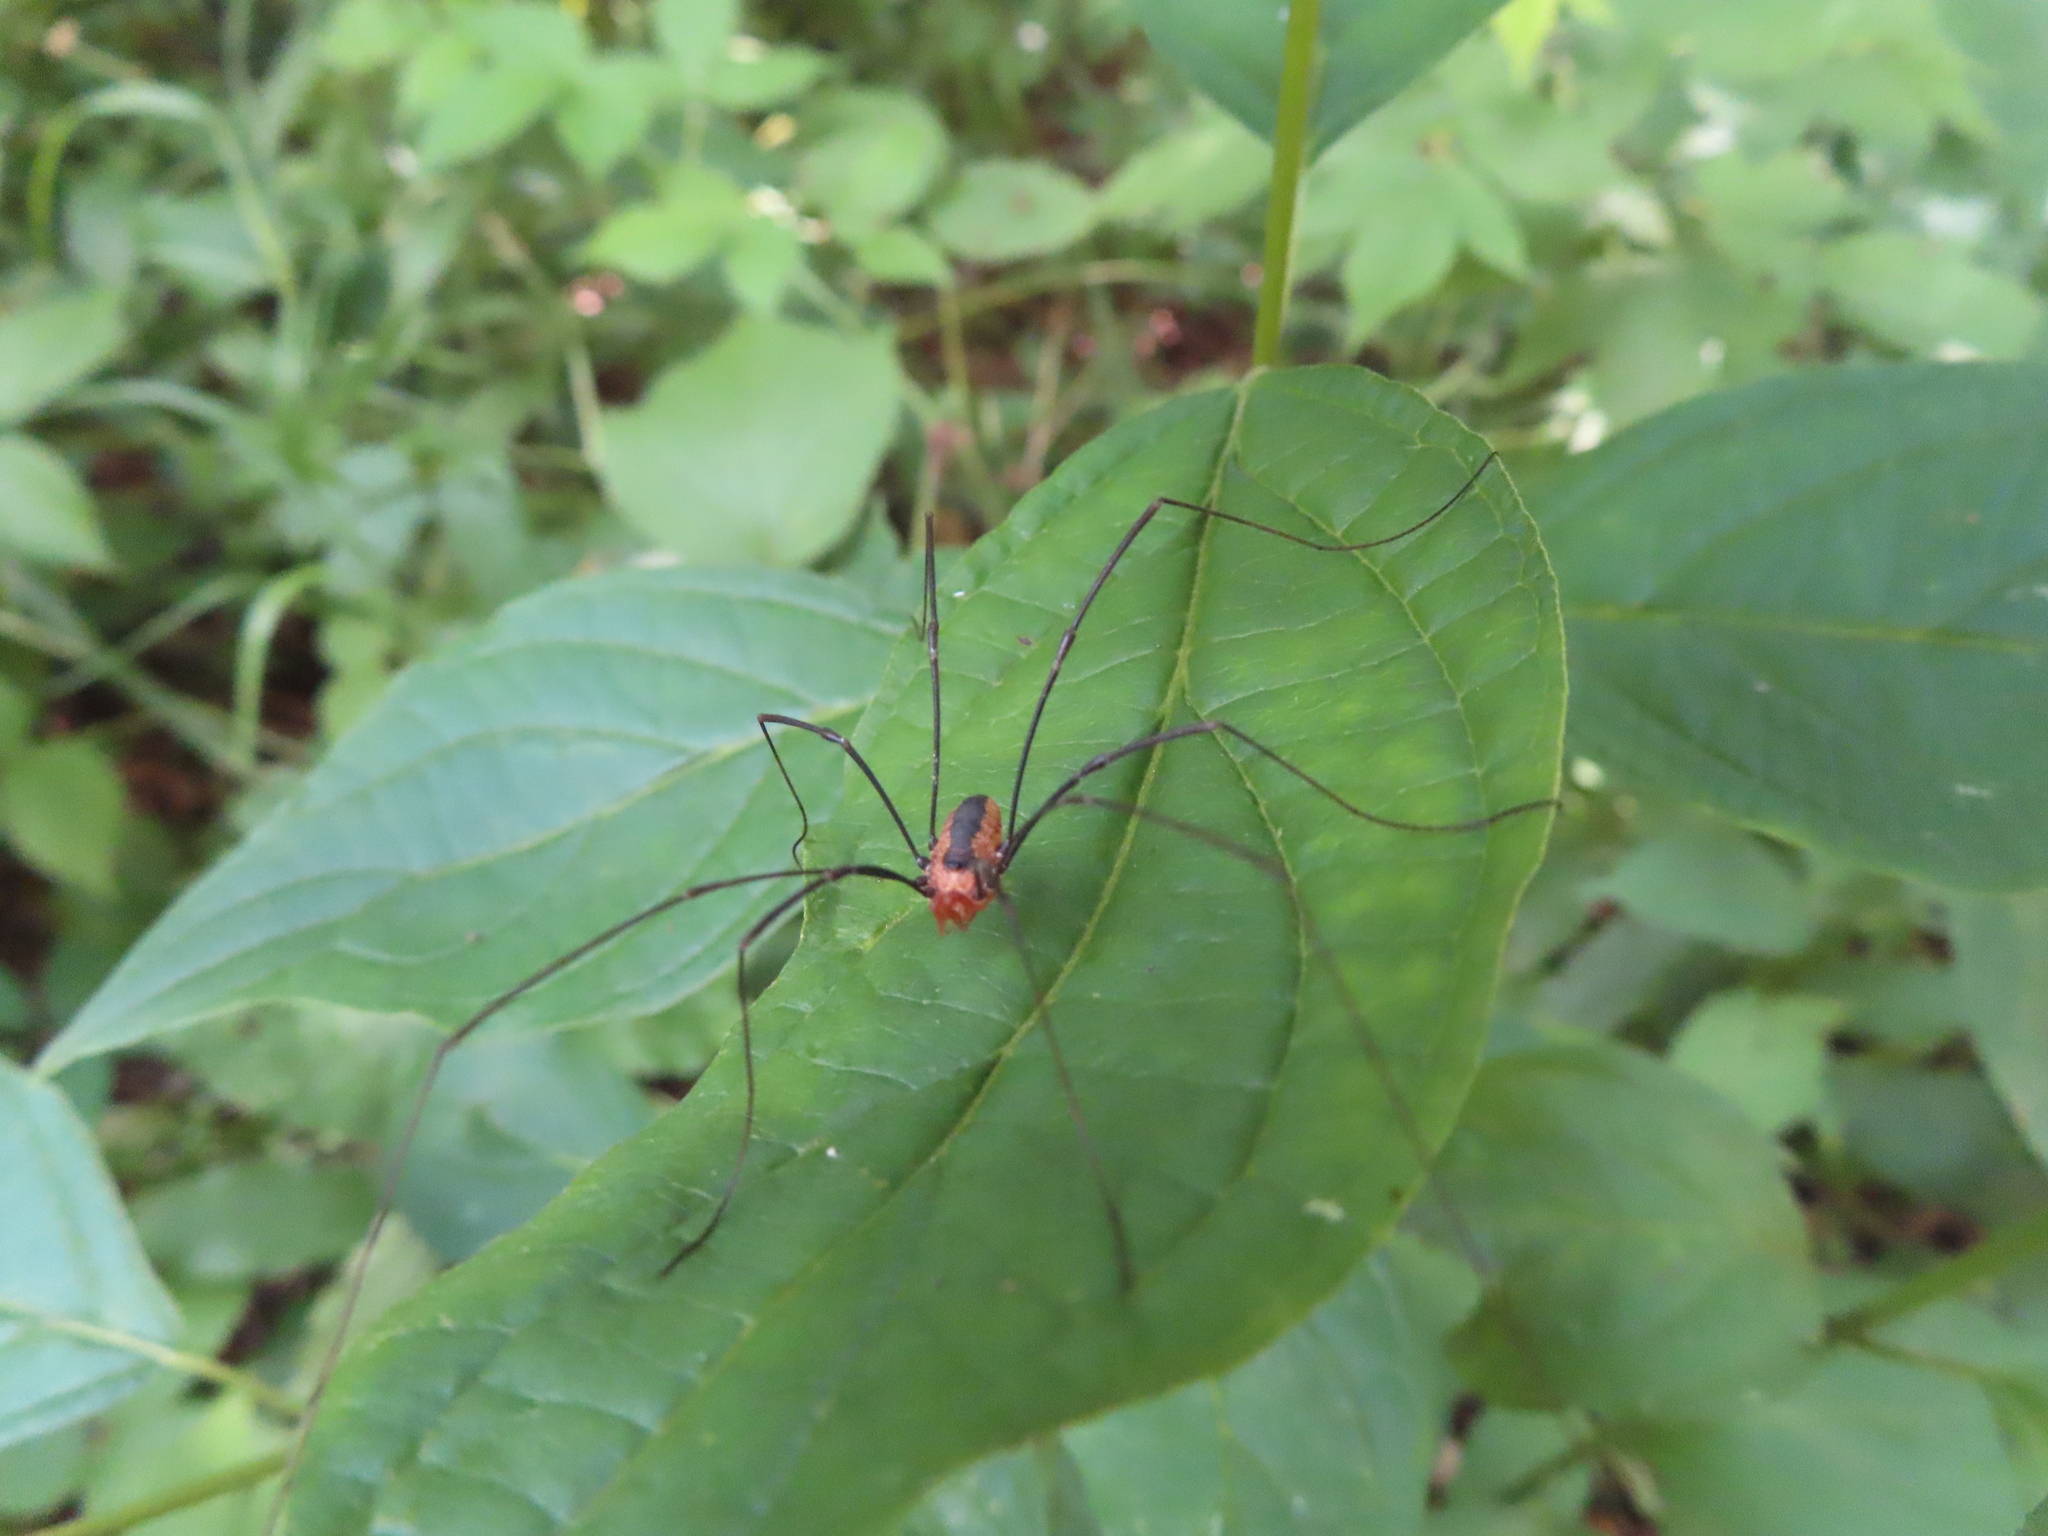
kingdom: Animalia
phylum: Arthropoda
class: Arachnida
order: Opiliones
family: Sclerosomatidae
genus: Leiobunum
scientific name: Leiobunum vittatum
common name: Eastern harvestman
